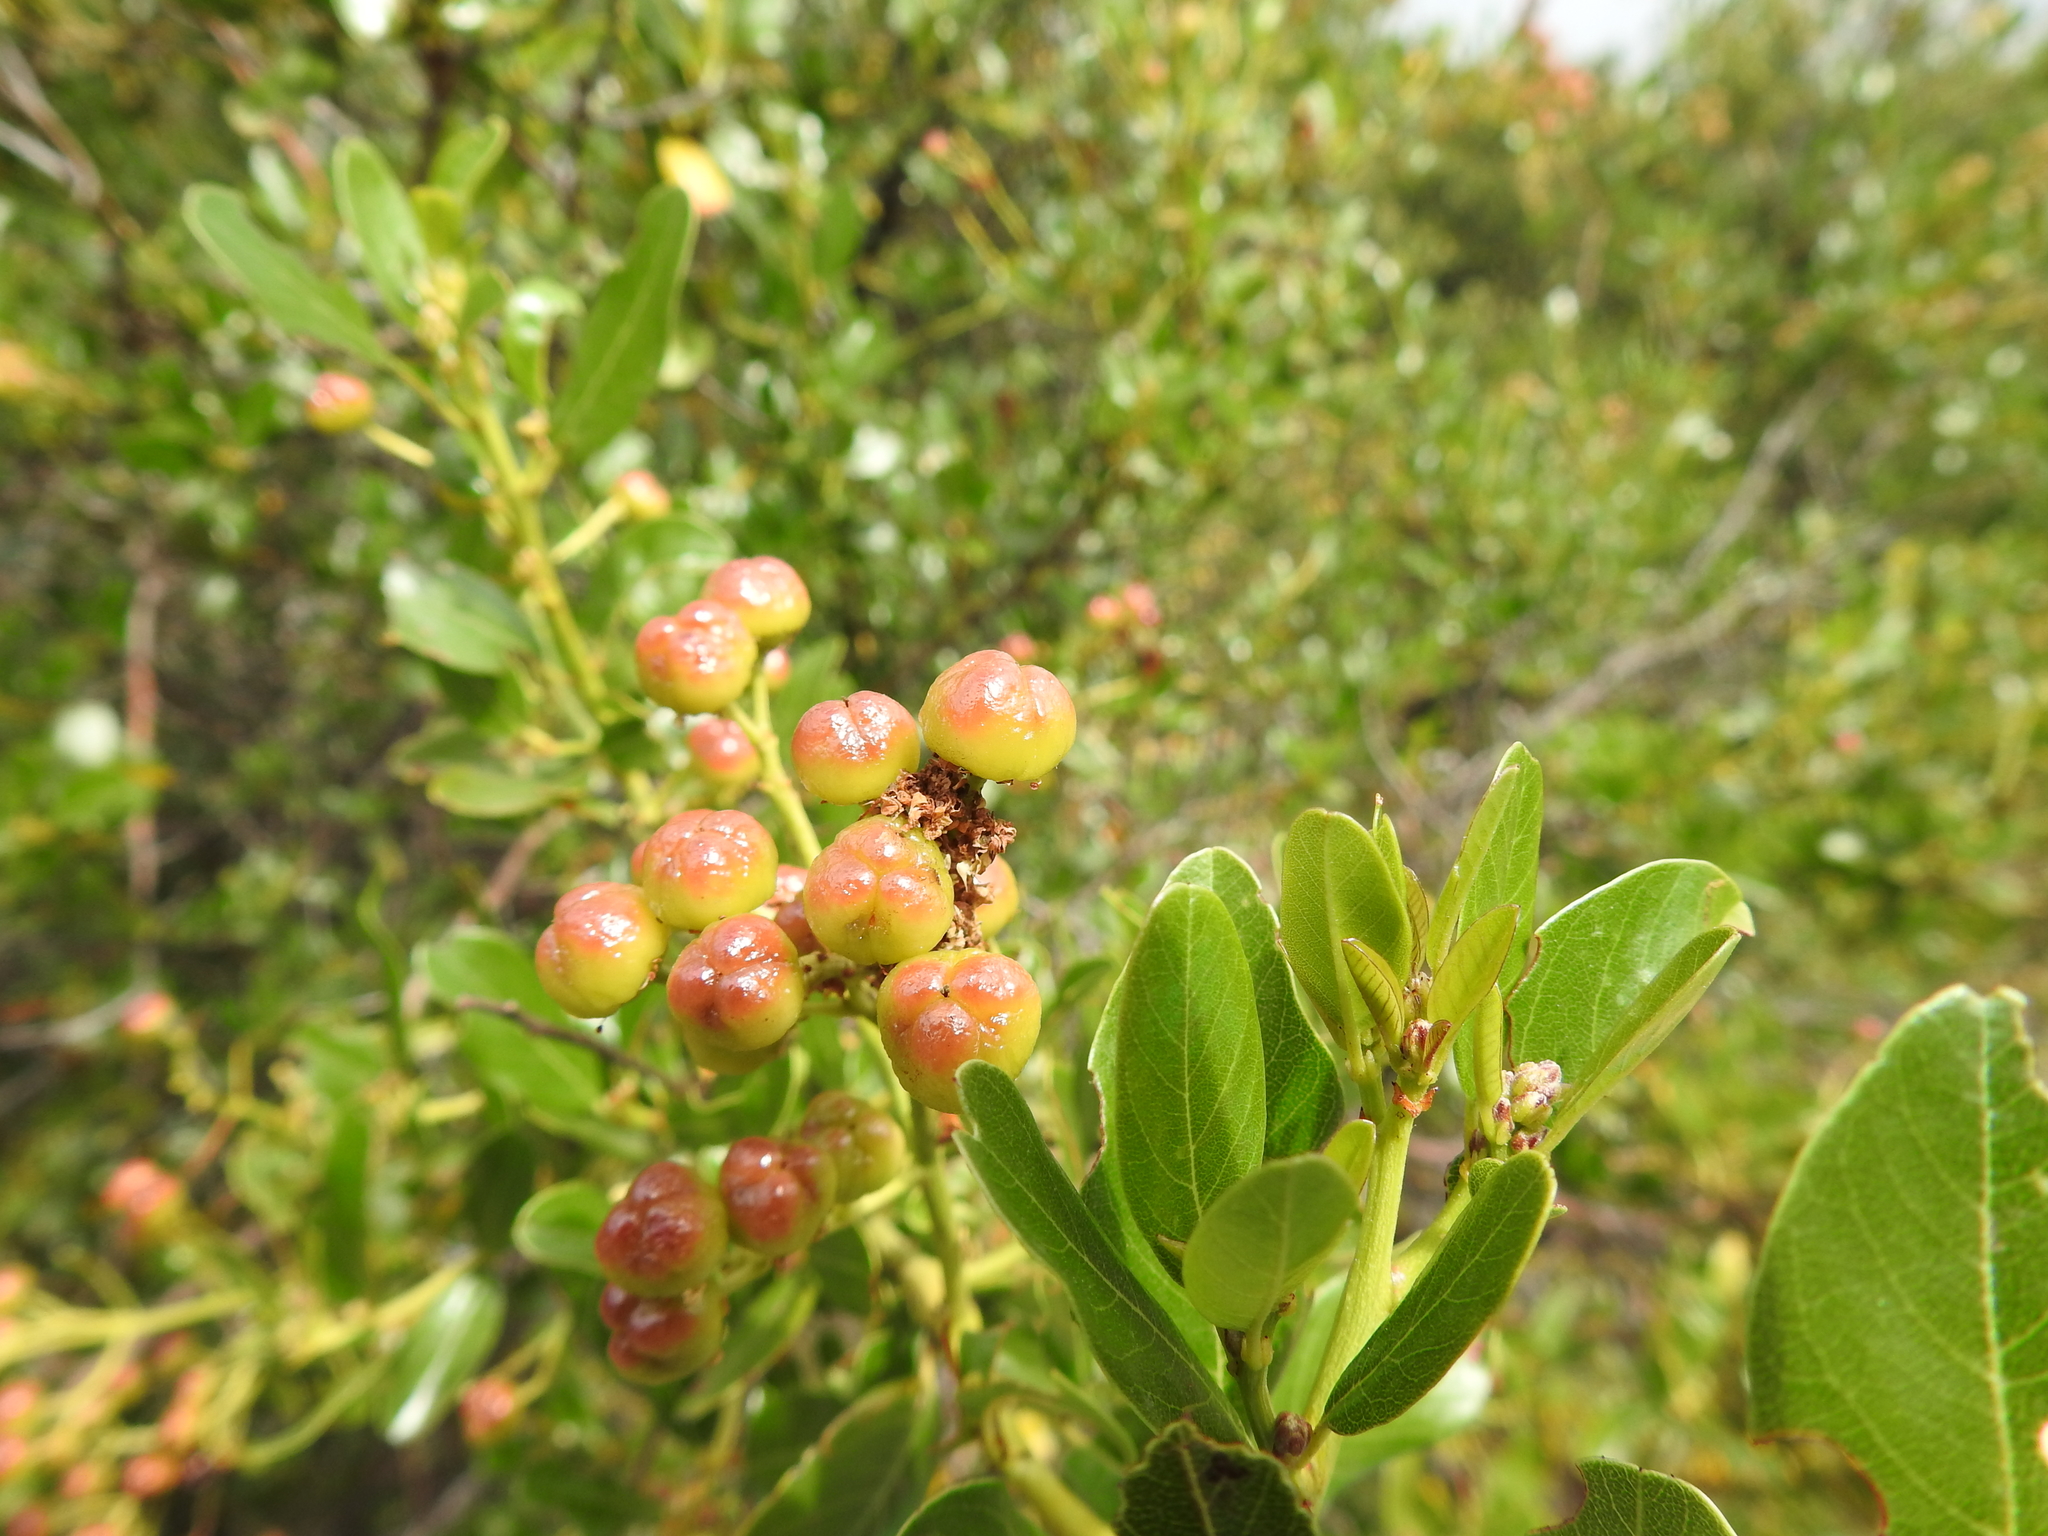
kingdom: Plantae
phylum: Tracheophyta
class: Magnoliopsida
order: Rosales
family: Rhamnaceae
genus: Ceanothus
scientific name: Ceanothus spinosus
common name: Greenbark whitethorn
